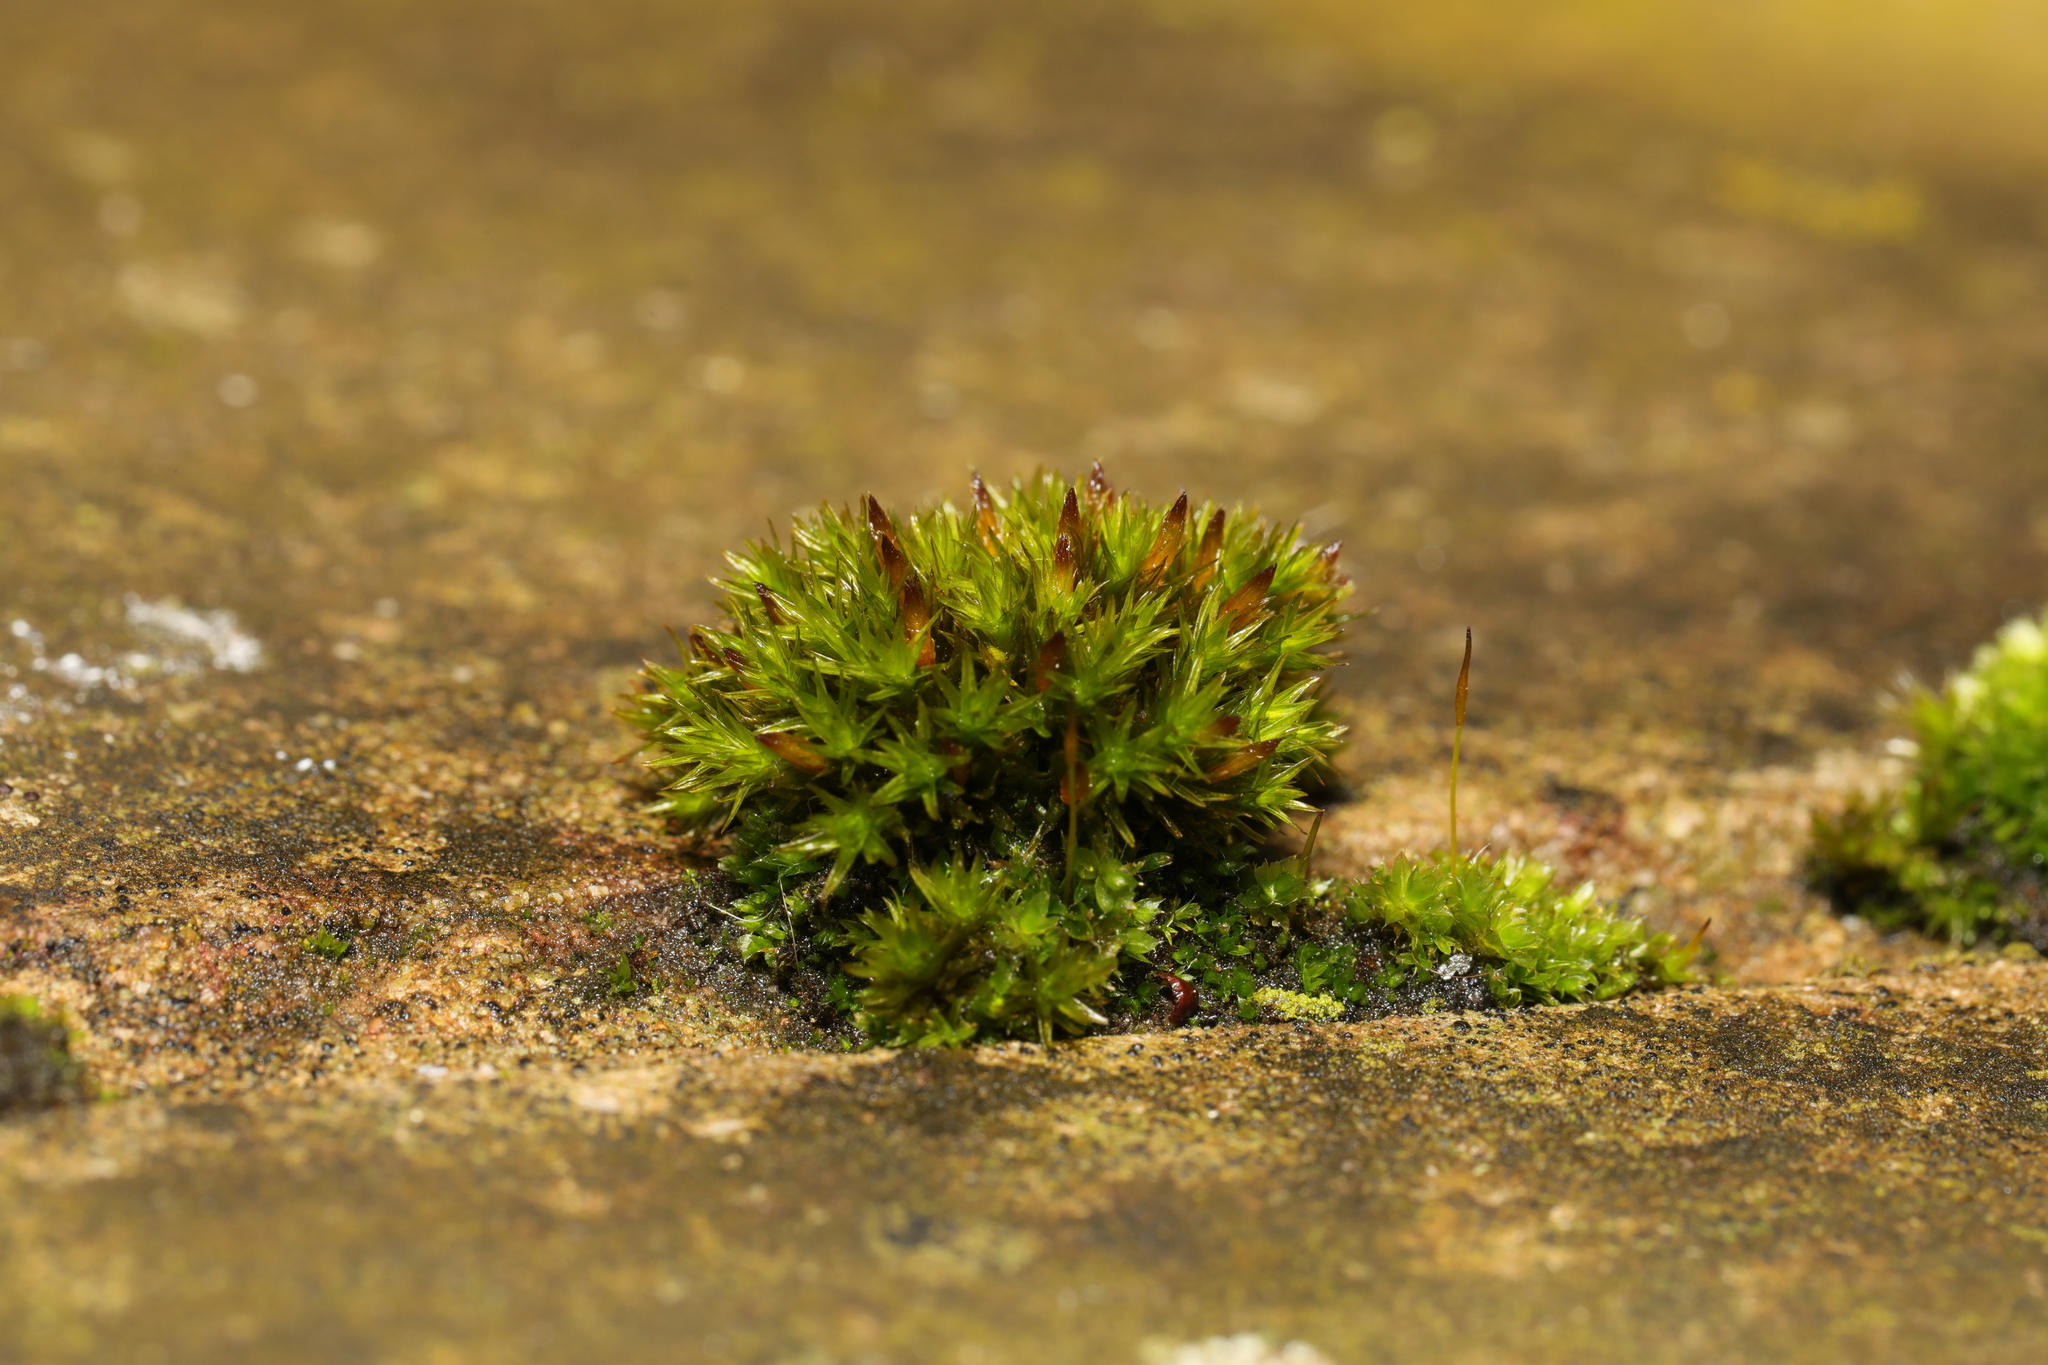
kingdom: Plantae
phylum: Bryophyta
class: Bryopsida
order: Orthotrichales
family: Orthotrichaceae
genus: Orthotrichum
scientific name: Orthotrichum cupulatum
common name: Hooded bristle-moss
